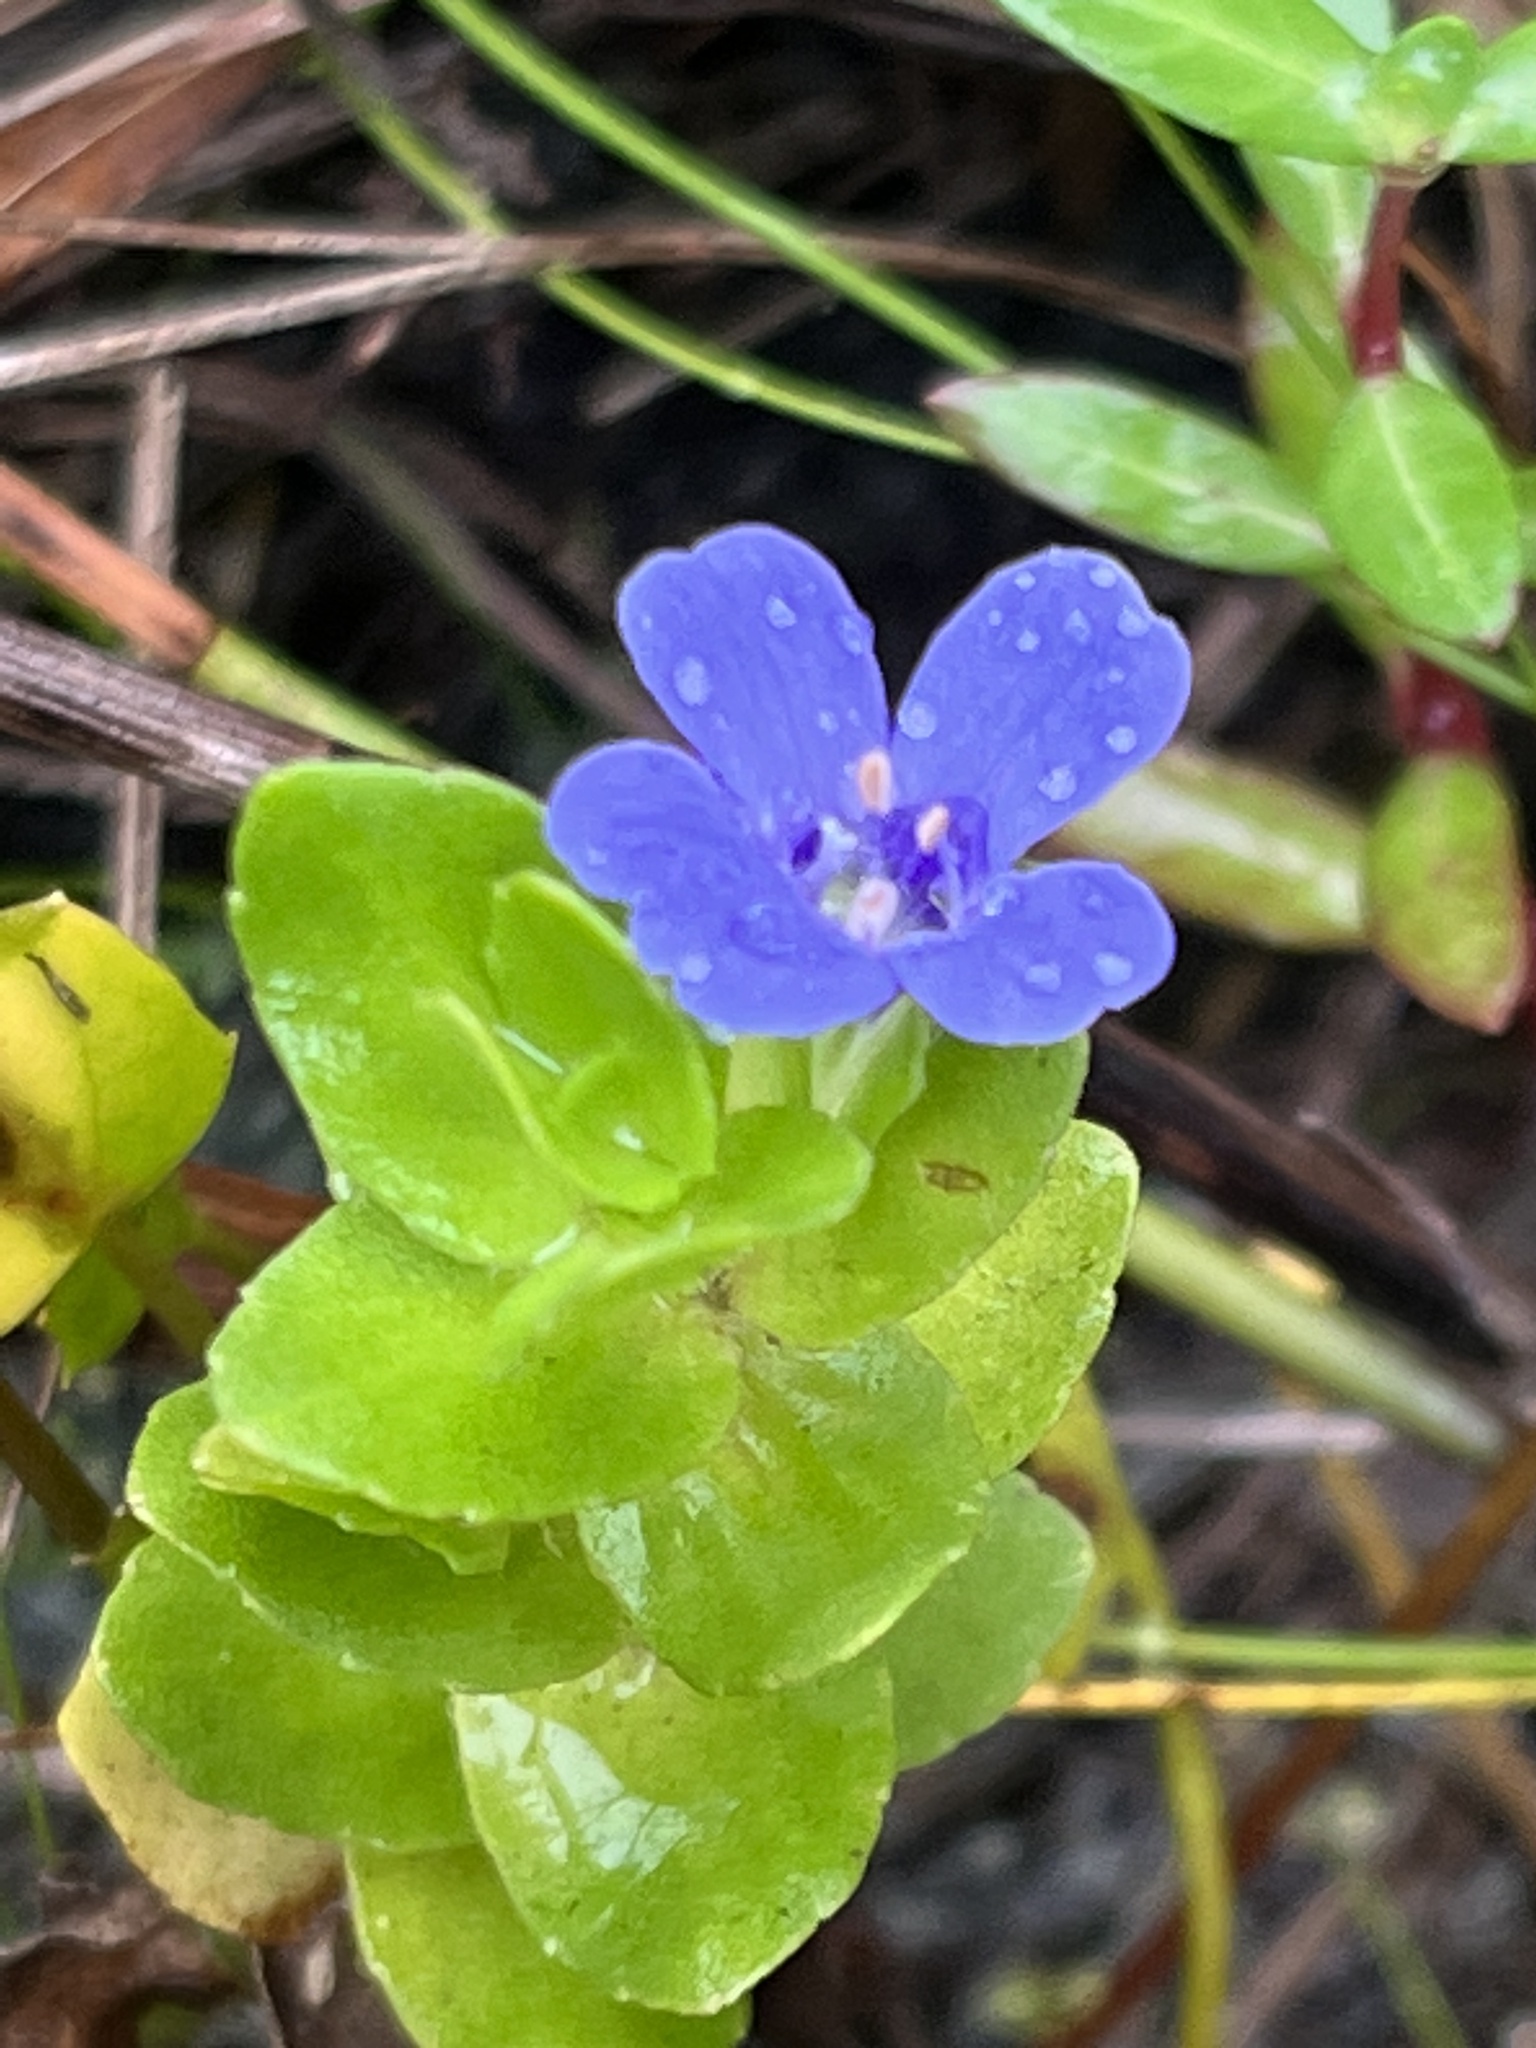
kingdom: Plantae
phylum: Tracheophyta
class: Magnoliopsida
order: Lamiales
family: Plantaginaceae
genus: Bacopa
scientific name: Bacopa caroliniana
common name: Lemon bacopa
